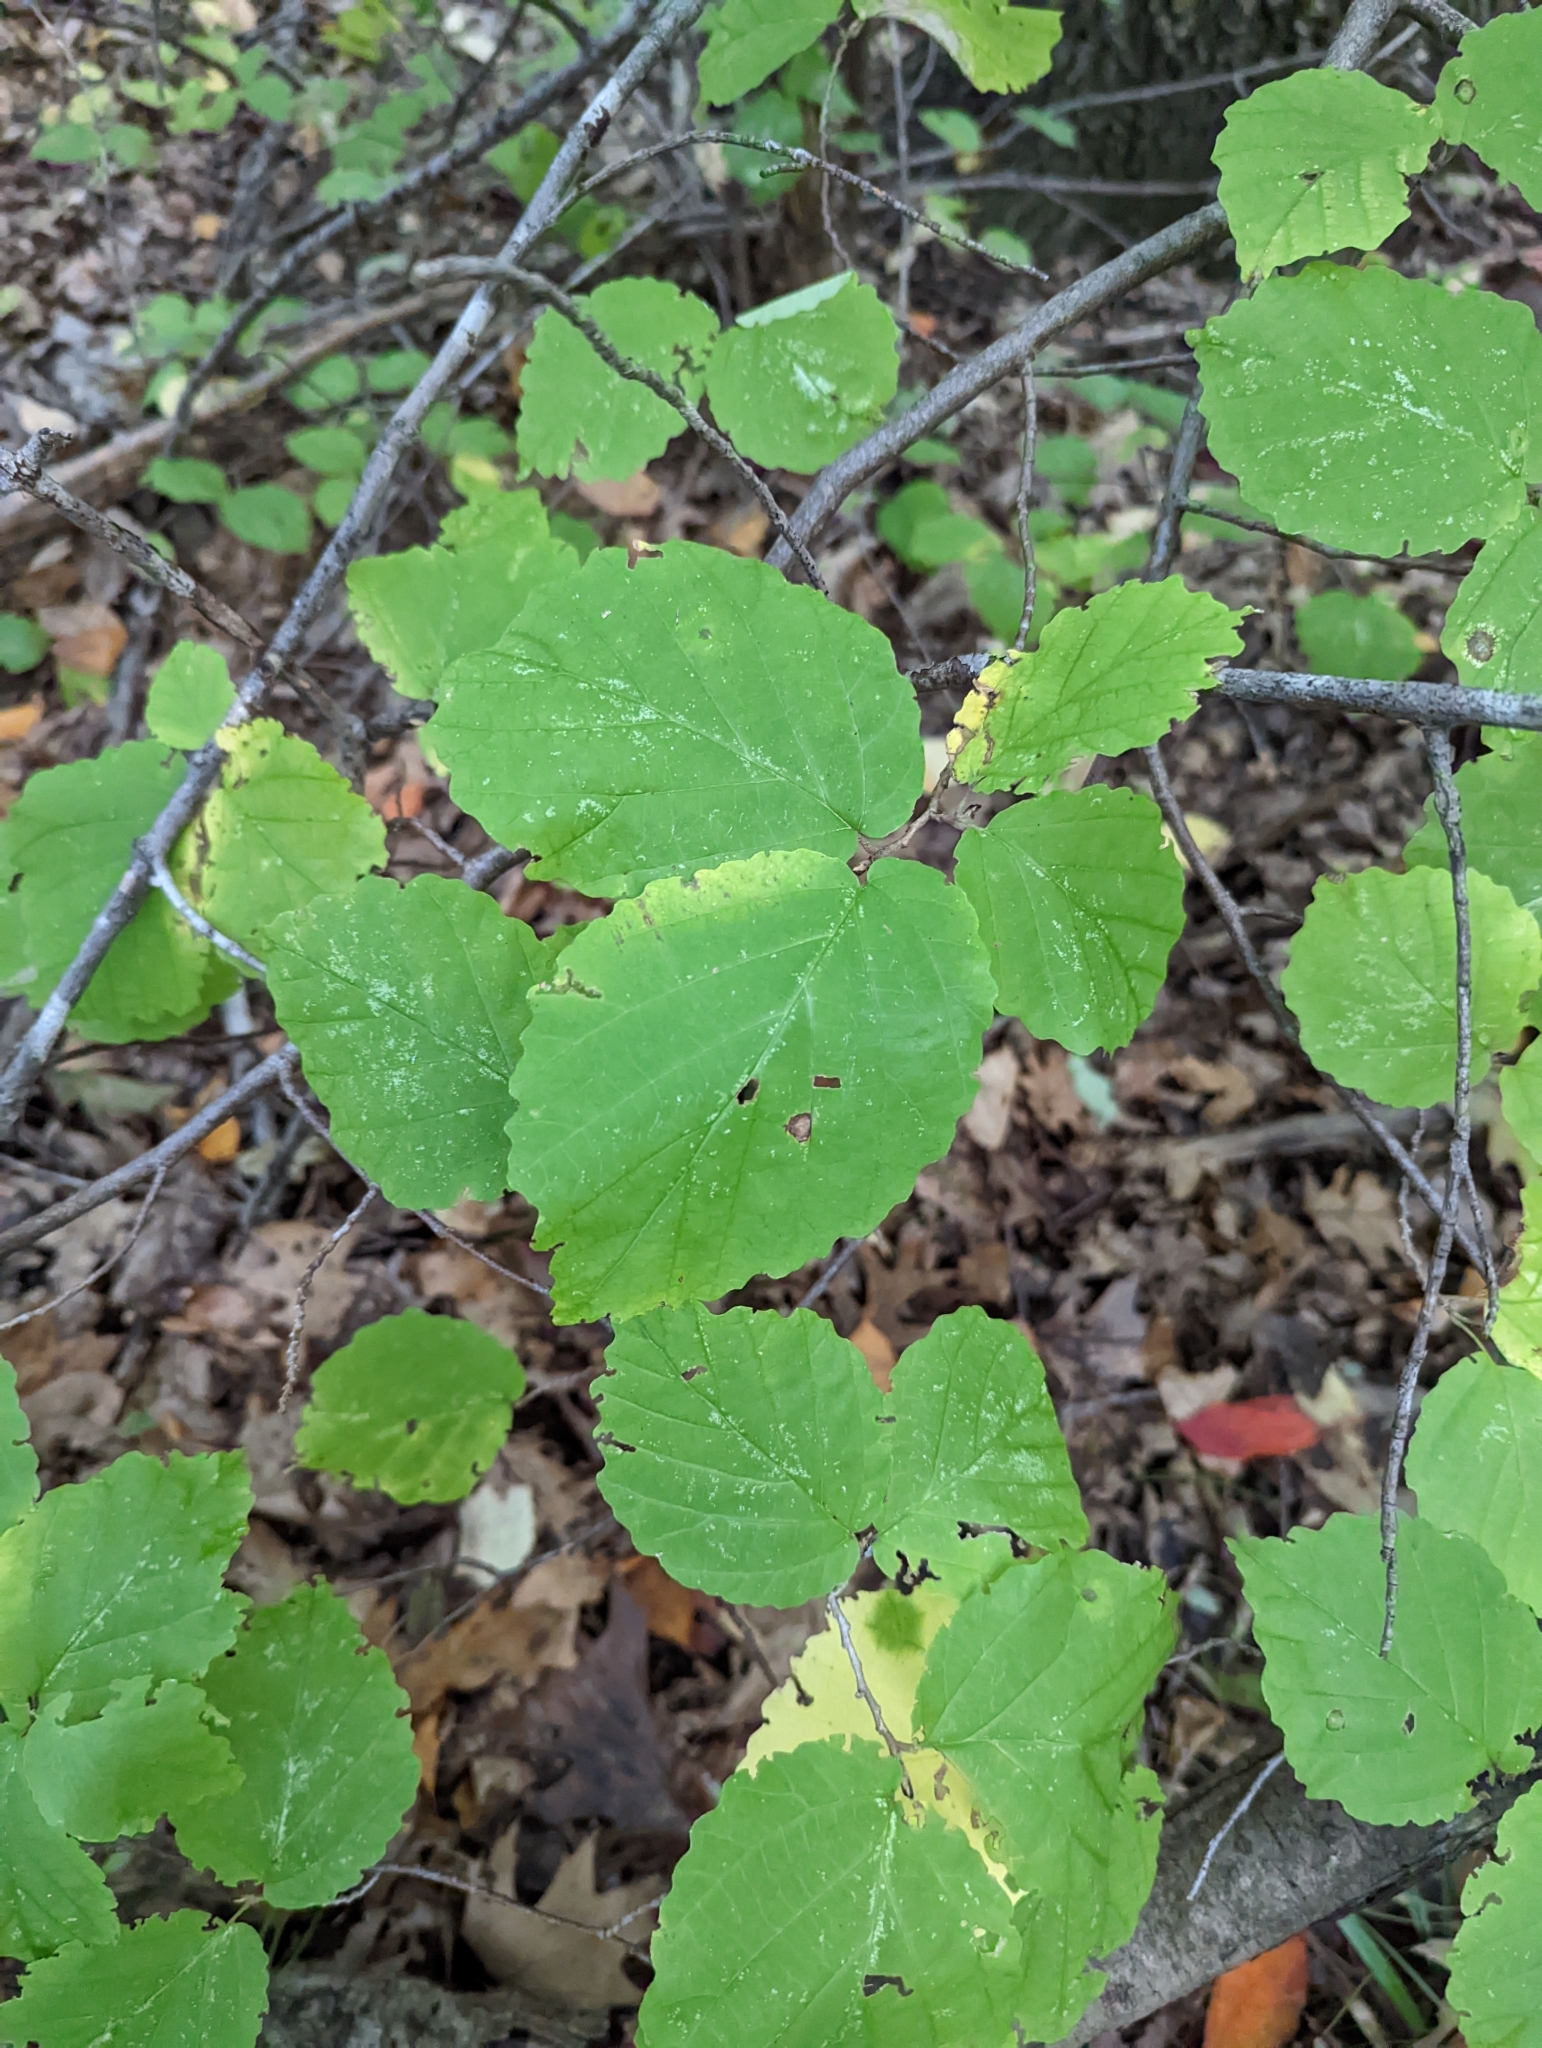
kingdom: Plantae
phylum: Tracheophyta
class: Magnoliopsida
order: Saxifragales
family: Hamamelidaceae
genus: Hamamelis
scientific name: Hamamelis virginiana
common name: Witch-hazel
